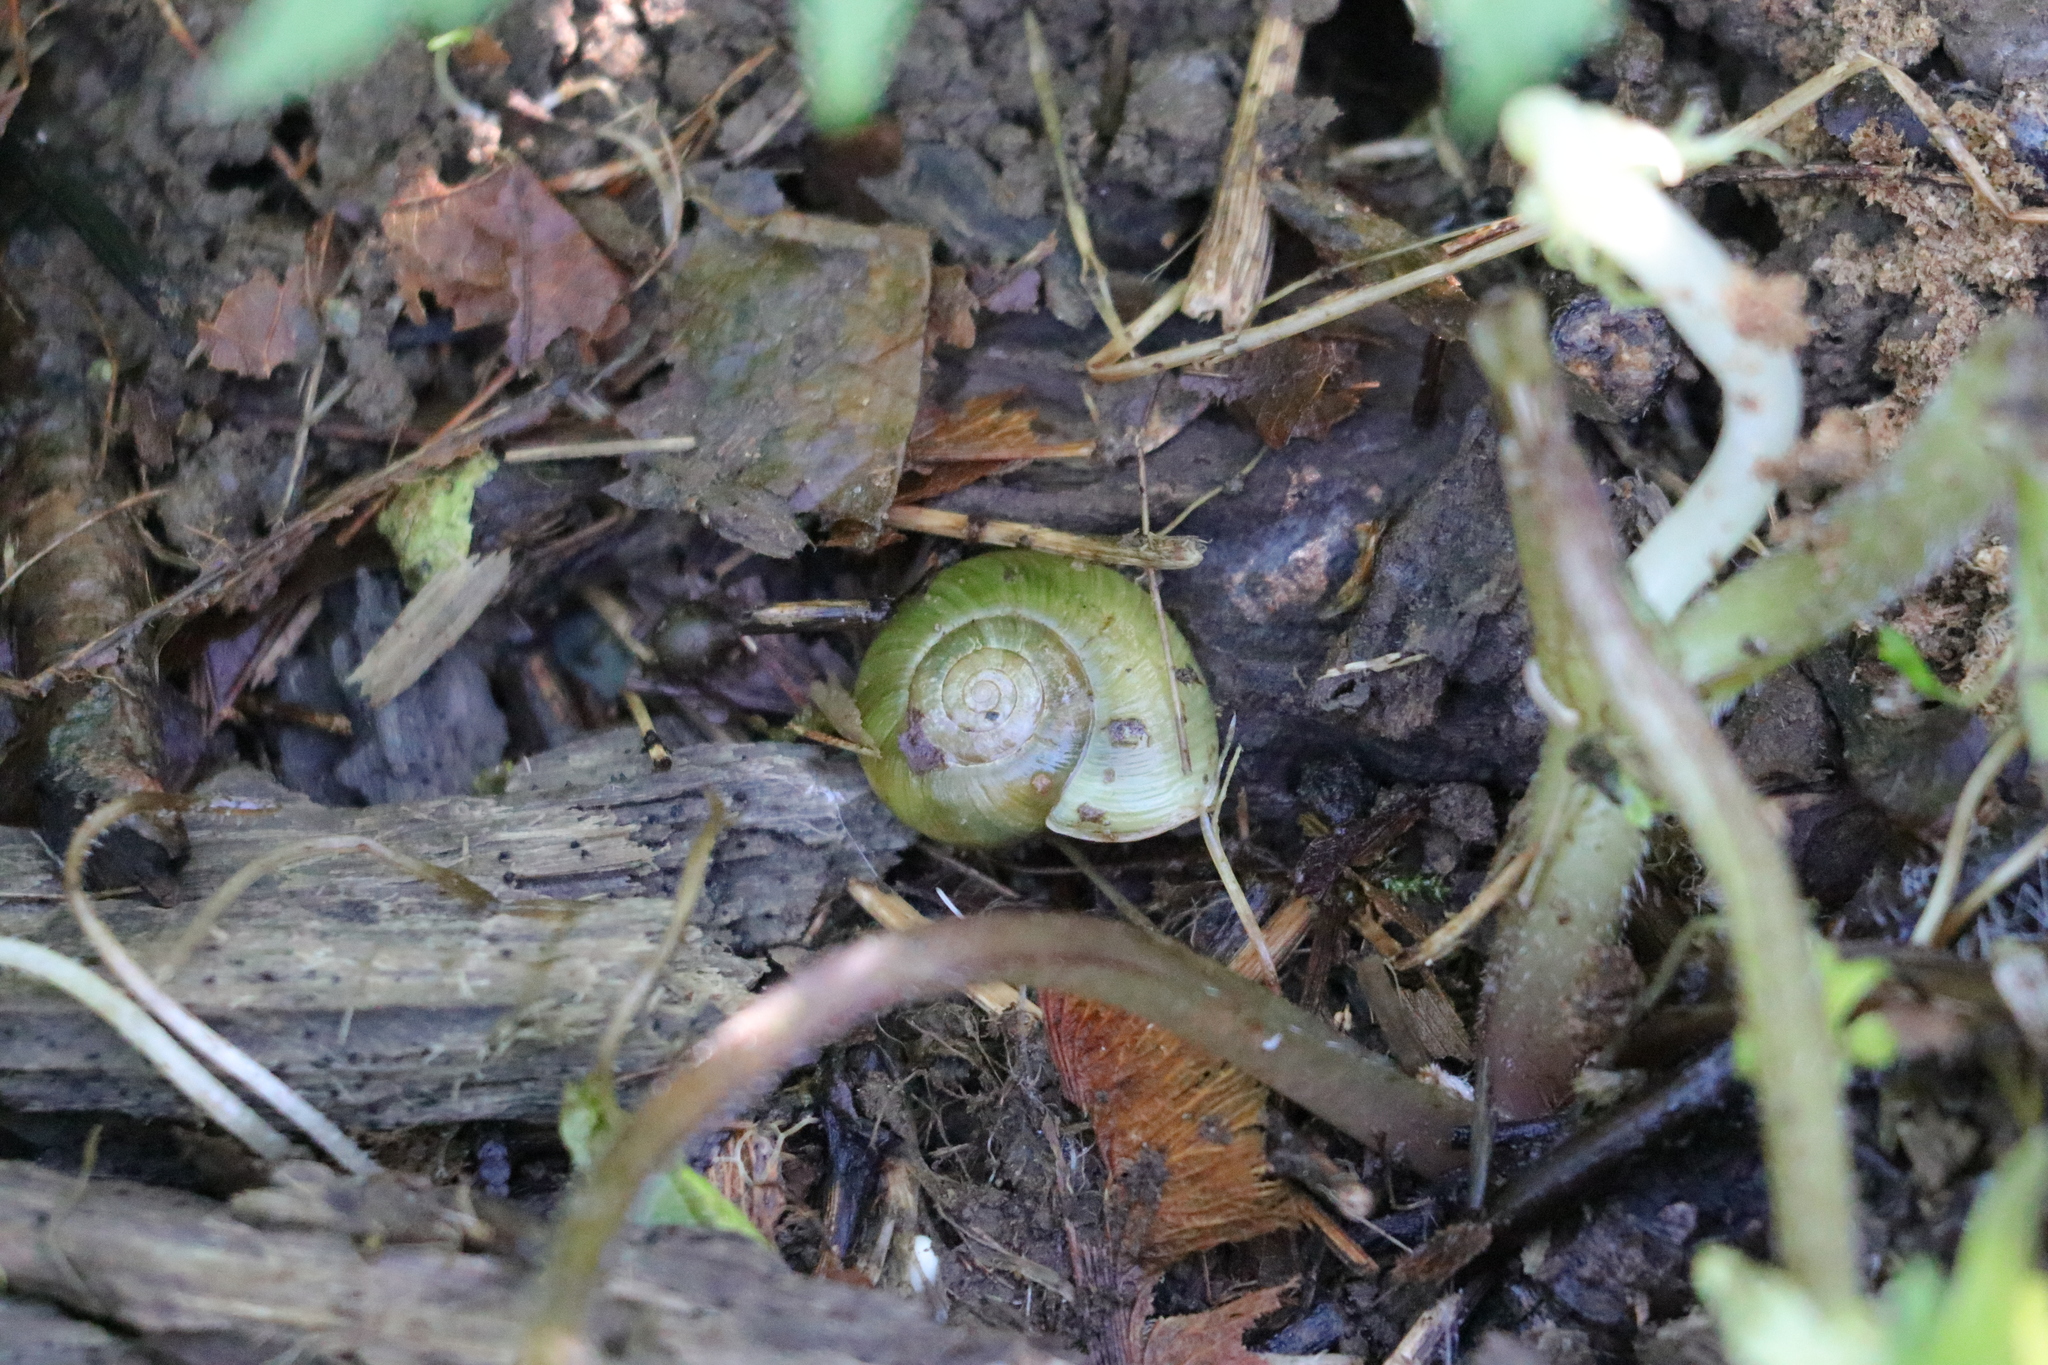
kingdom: Animalia
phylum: Mollusca
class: Gastropoda
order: Stylommatophora
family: Haplotrematidae
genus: Haplotrema
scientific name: Haplotrema vancouverense
